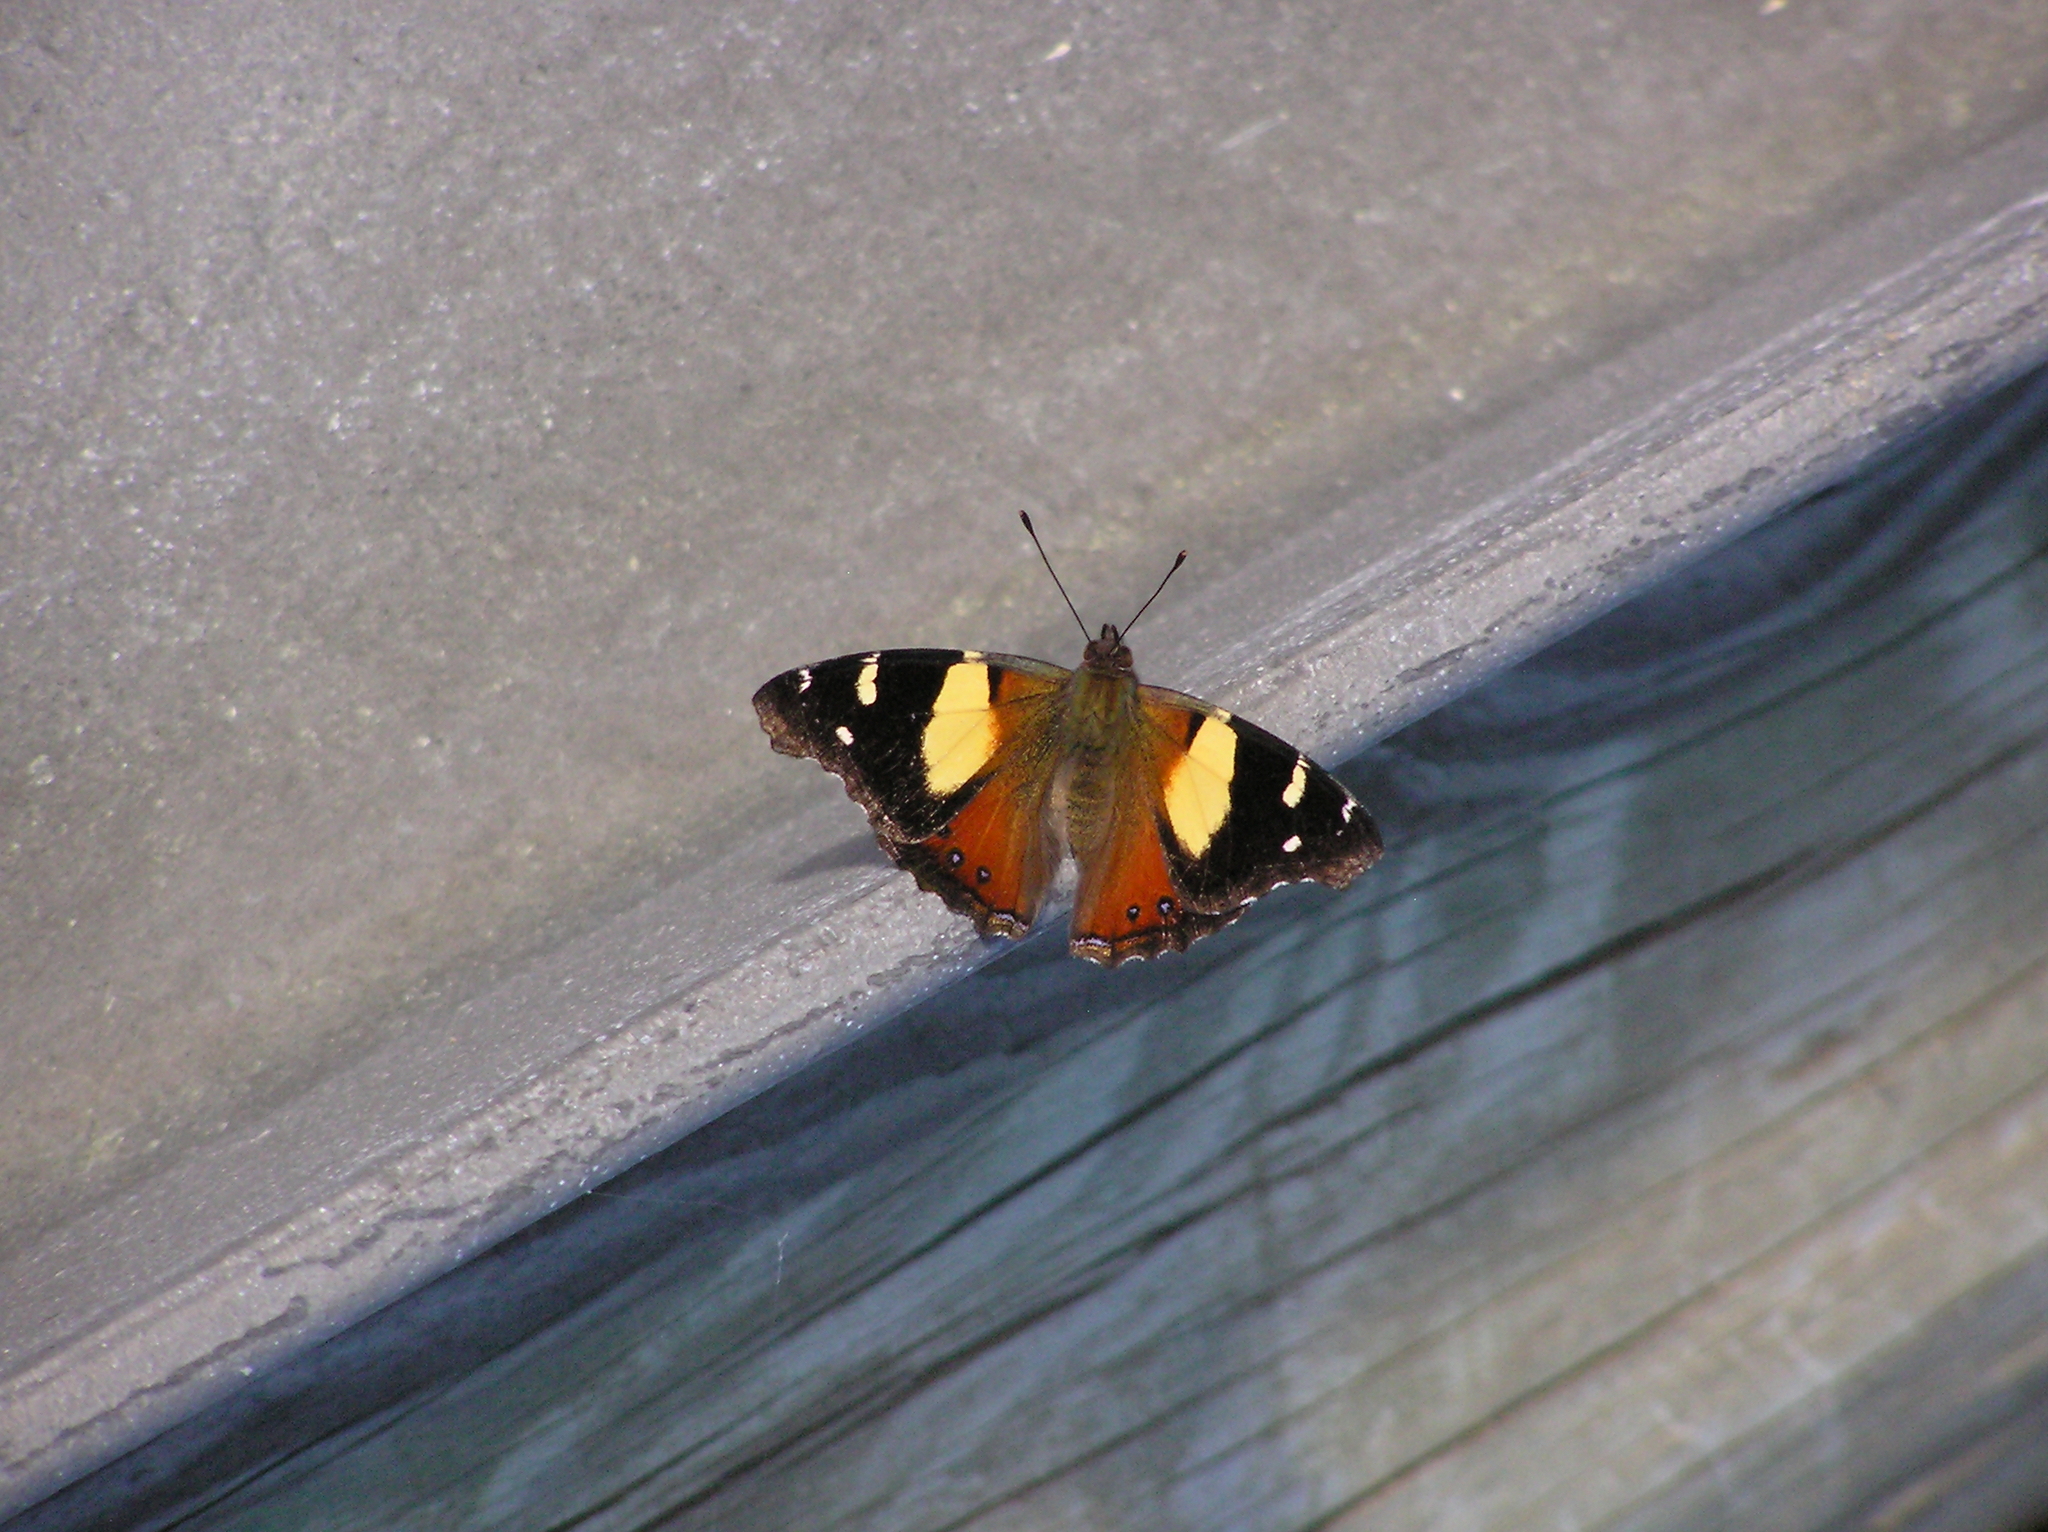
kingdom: Animalia
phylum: Arthropoda
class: Insecta
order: Lepidoptera
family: Nymphalidae
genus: Vanessa
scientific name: Vanessa itea
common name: Yellow admiral
